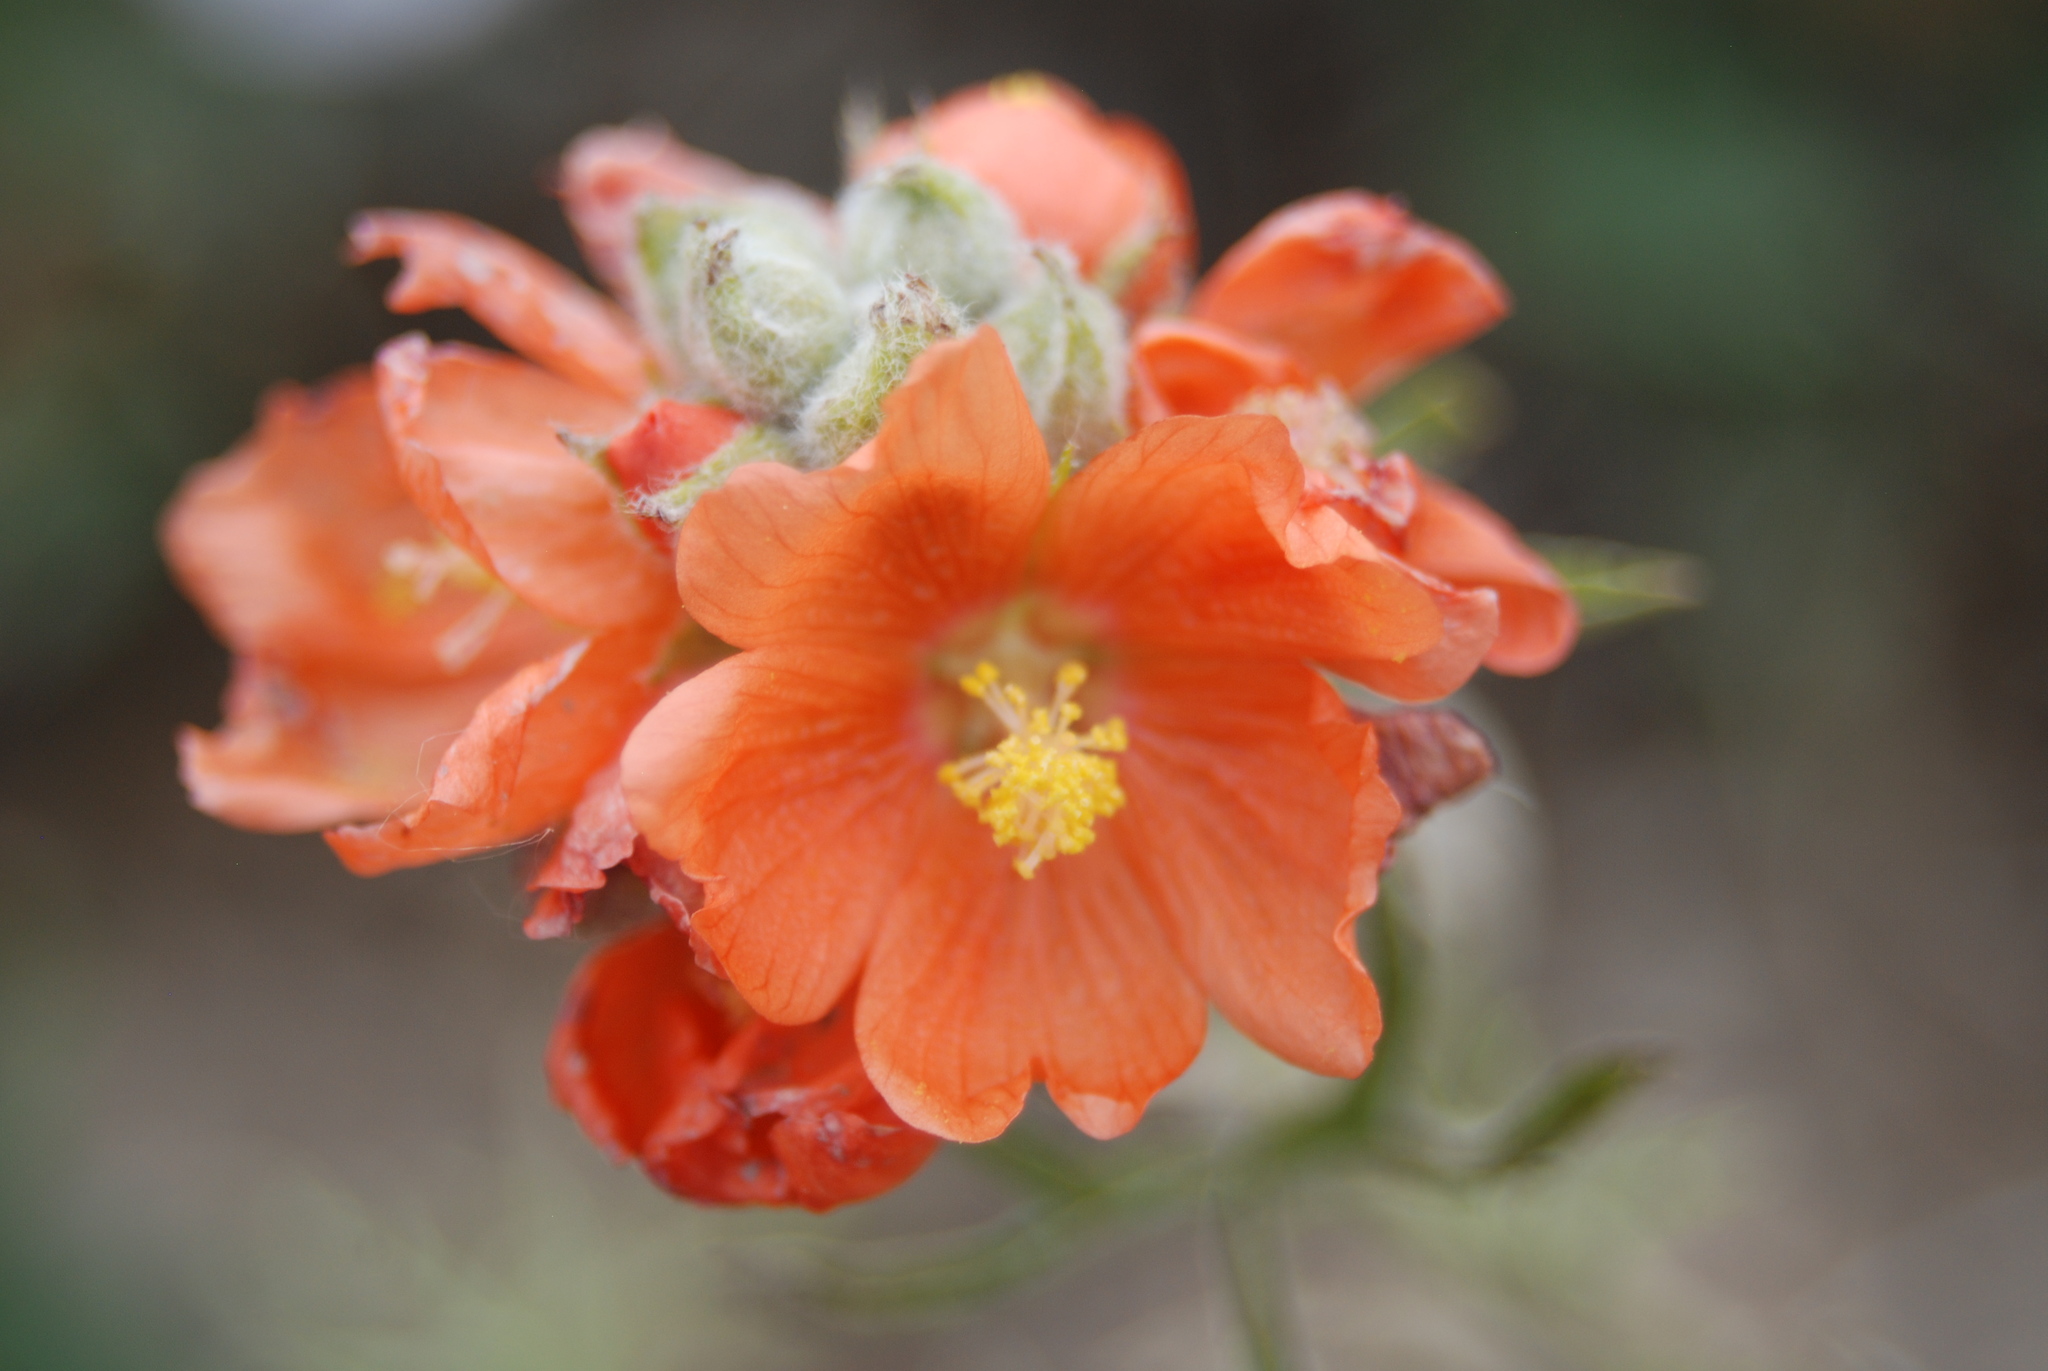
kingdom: Plantae
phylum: Tracheophyta
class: Magnoliopsida
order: Malvales
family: Malvaceae
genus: Sphaeralcea
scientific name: Sphaeralcea coccinea
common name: Moss-rose
